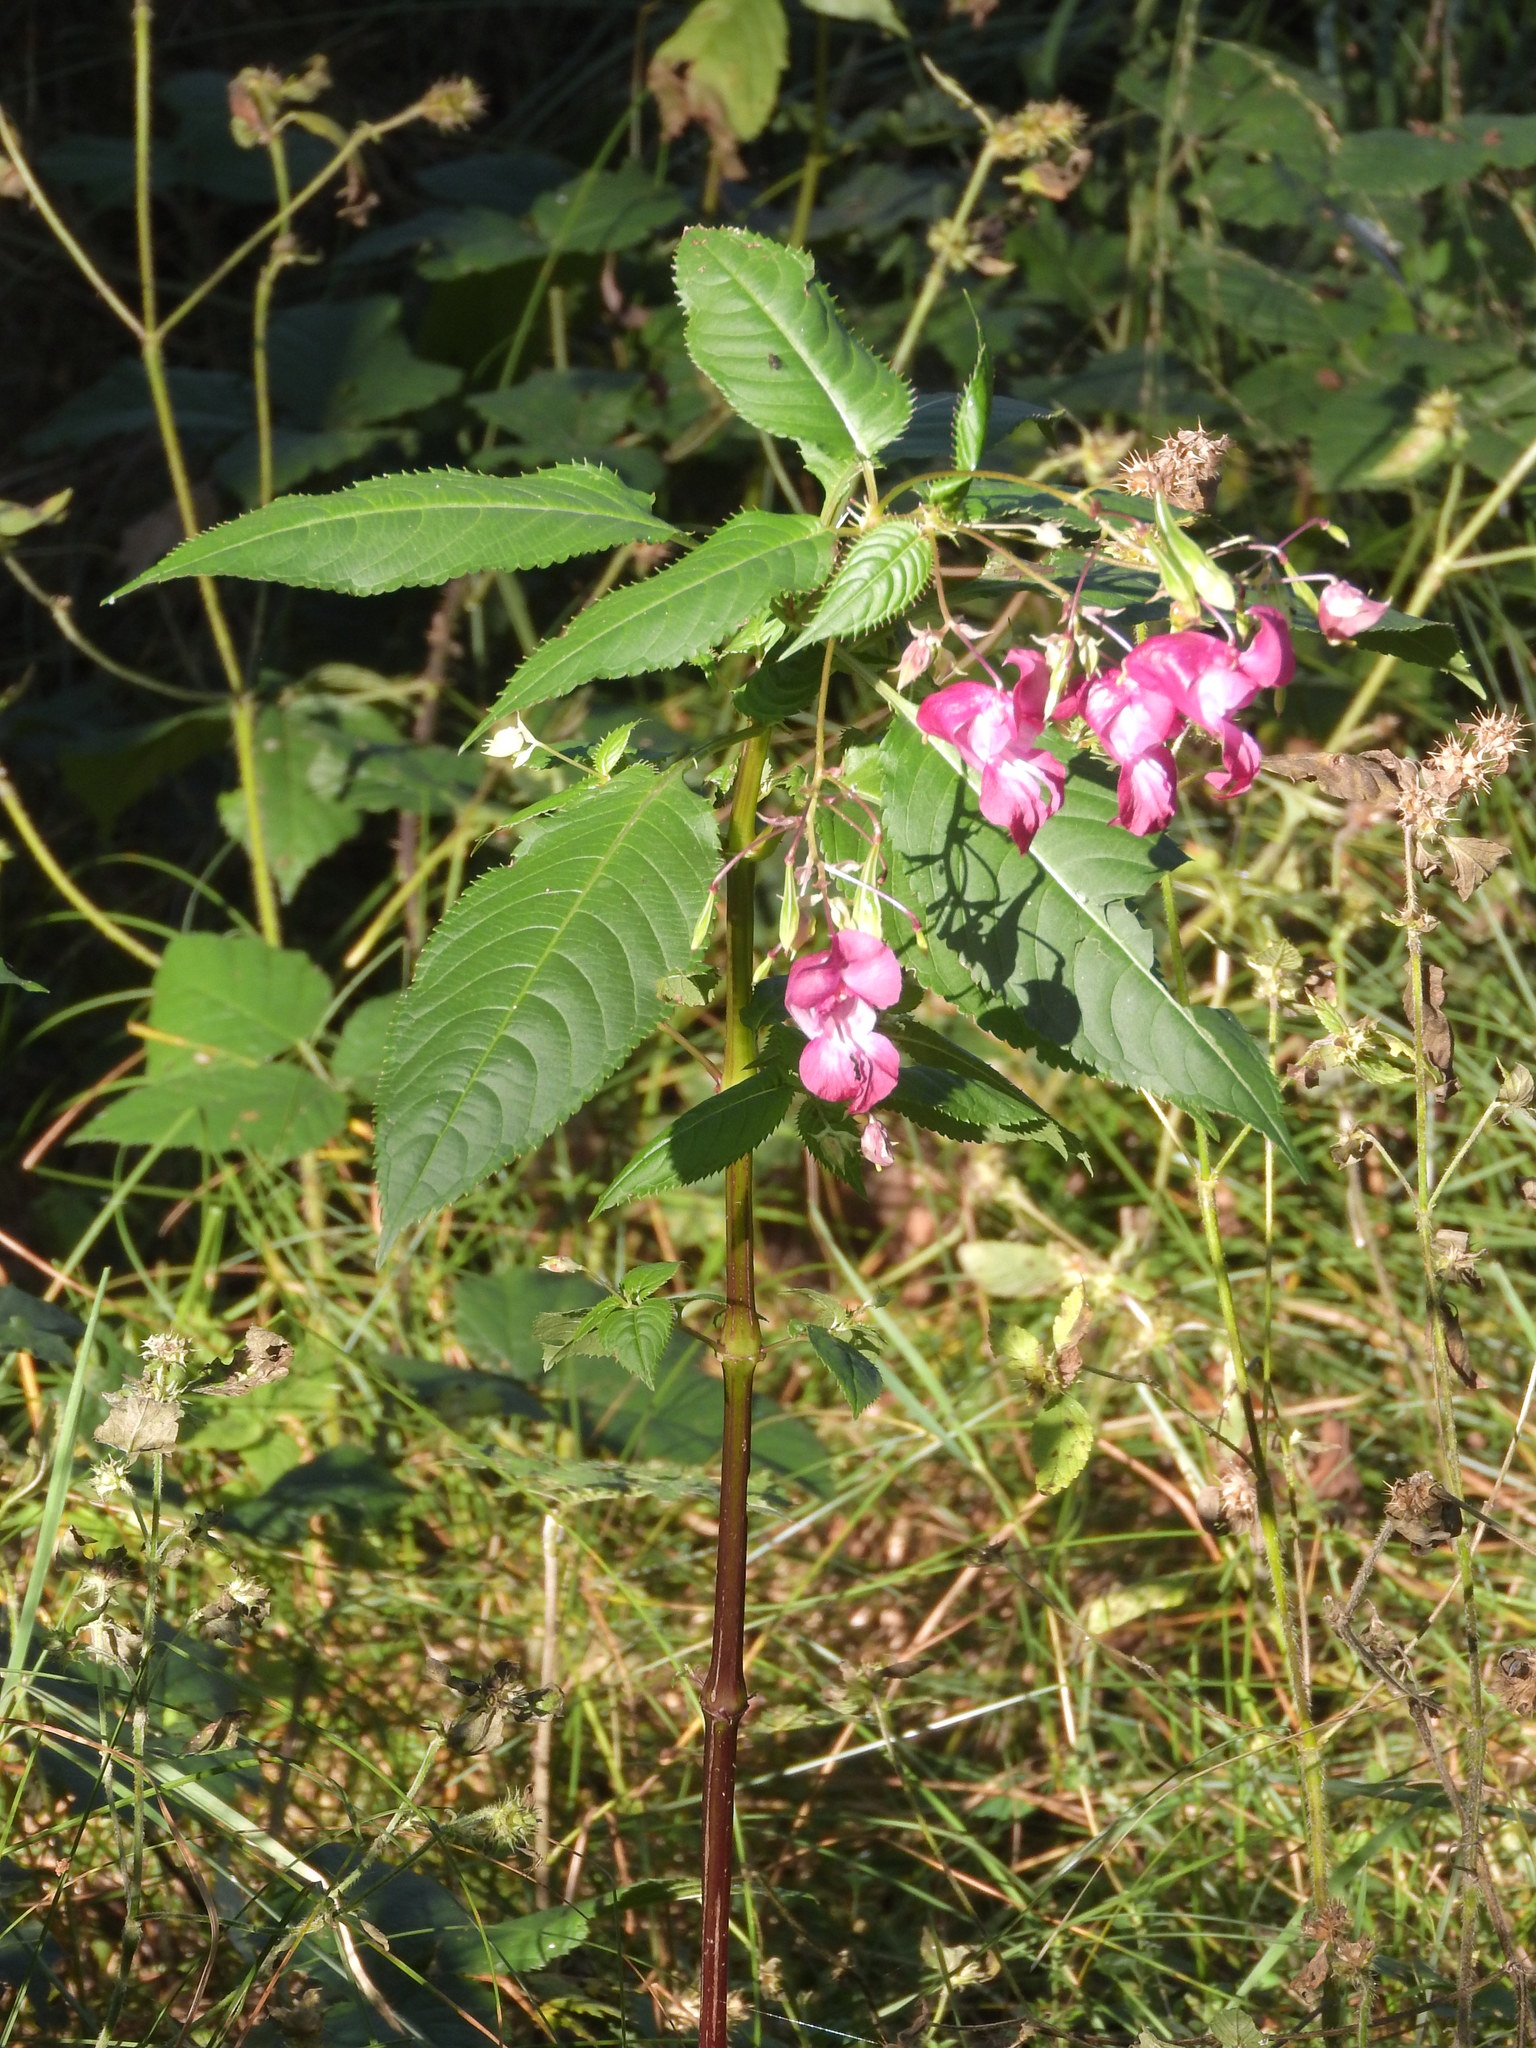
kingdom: Plantae
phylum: Tracheophyta
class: Magnoliopsida
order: Ericales
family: Balsaminaceae
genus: Impatiens
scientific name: Impatiens glandulifera
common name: Himalayan balsam
